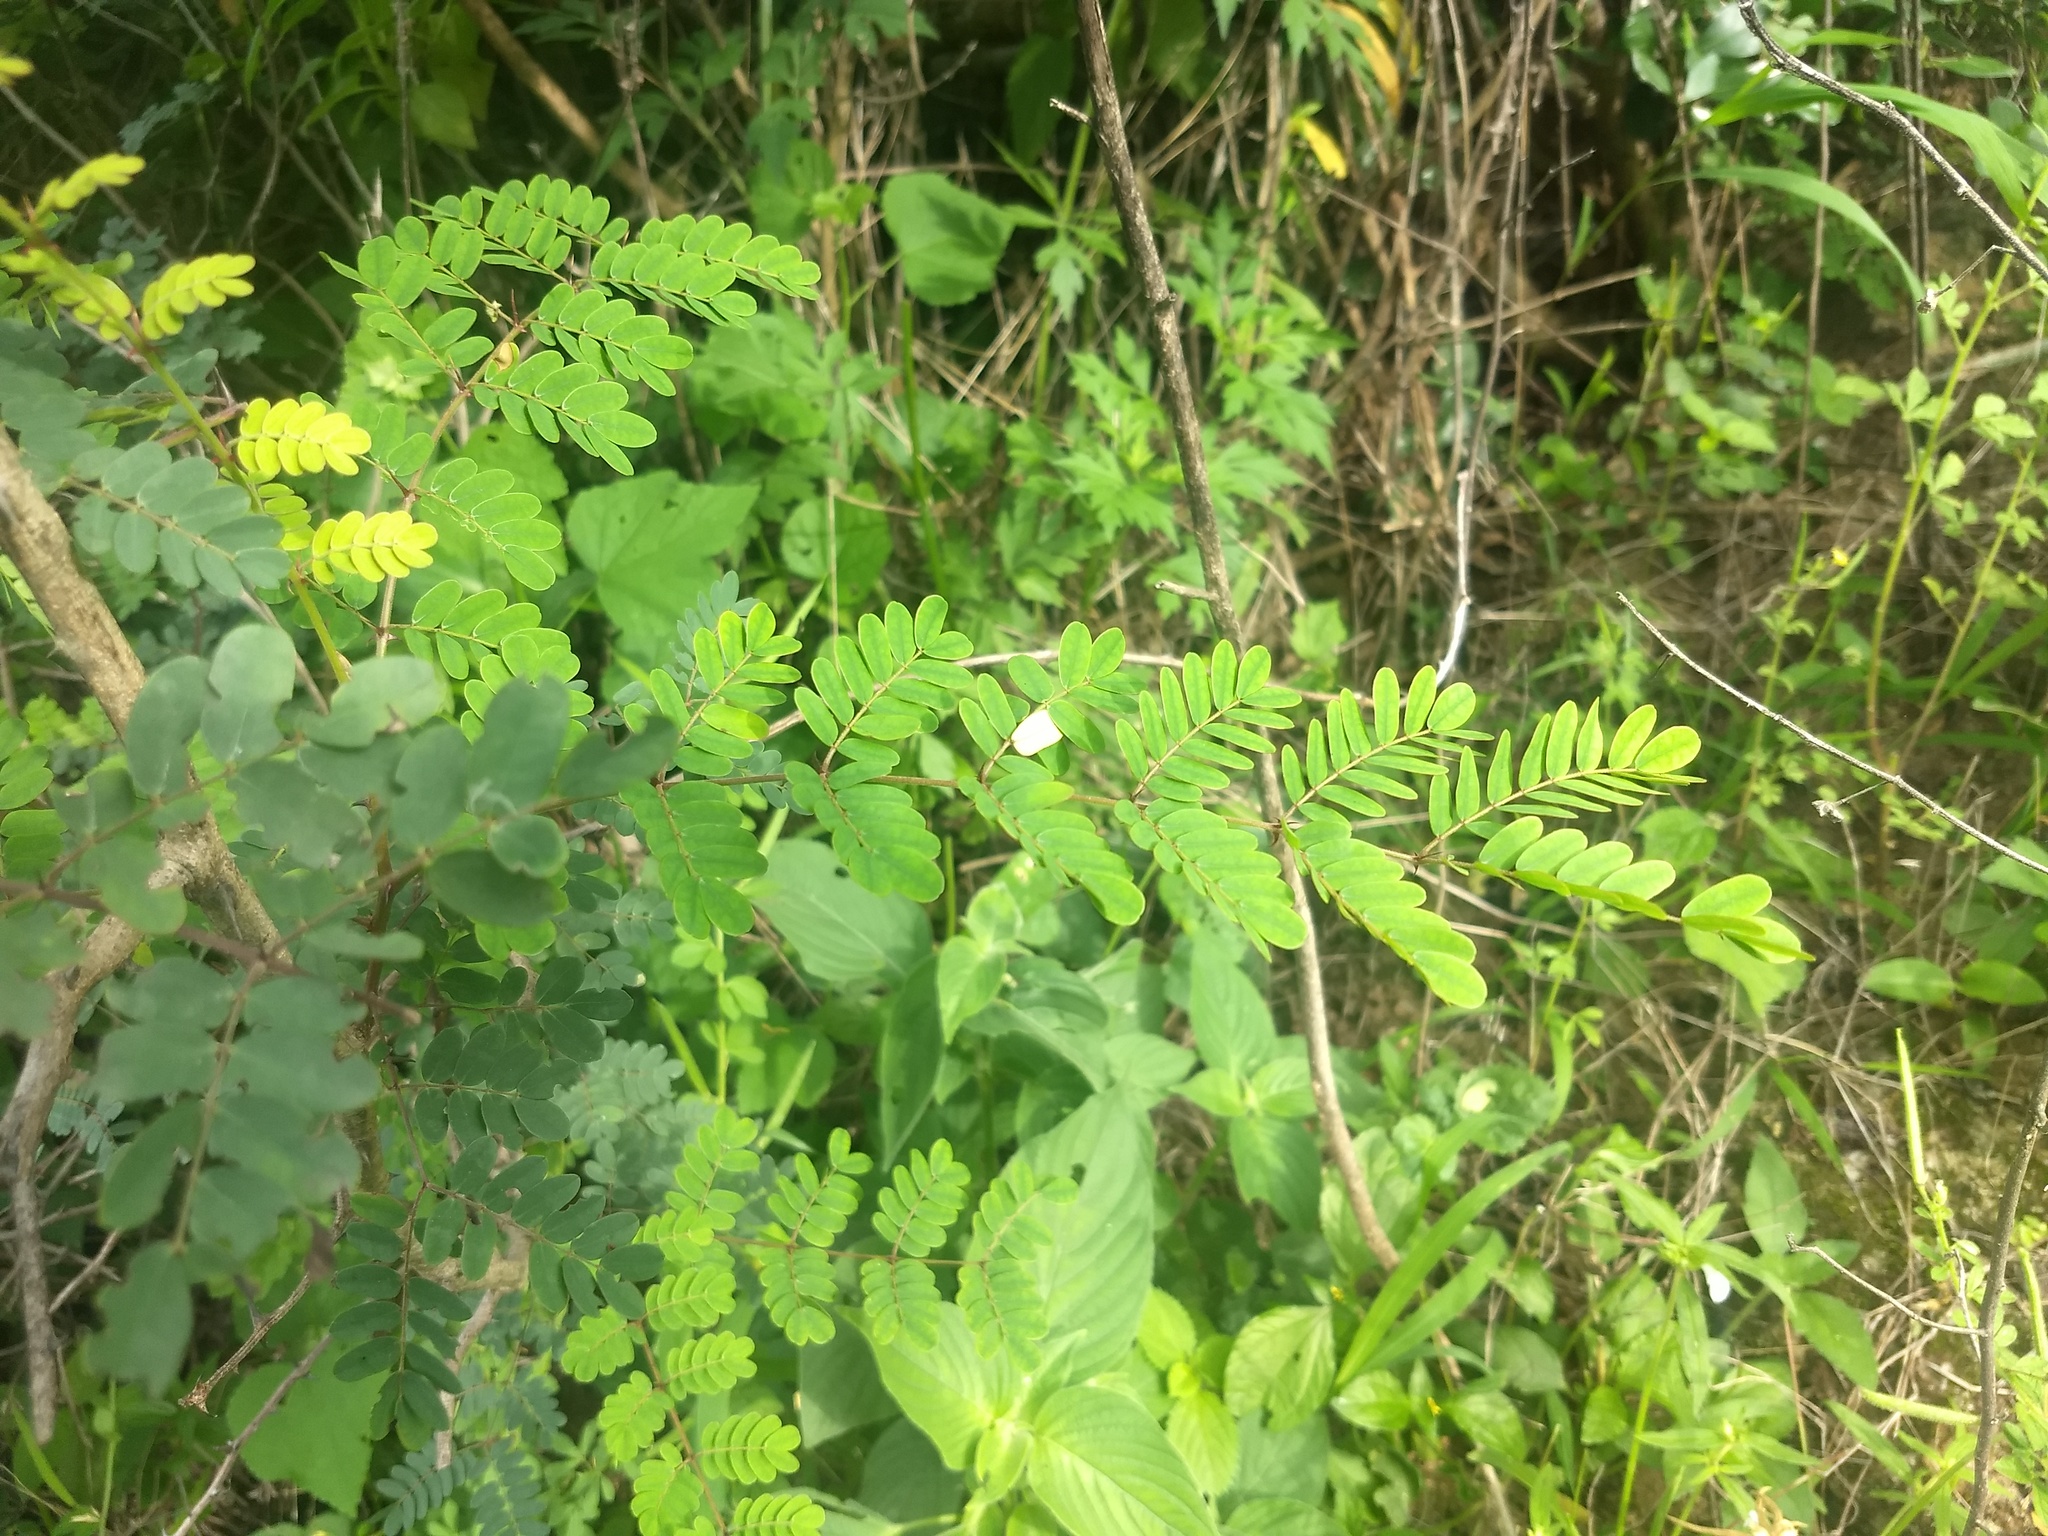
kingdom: Plantae
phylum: Tracheophyta
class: Magnoliopsida
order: Fabales
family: Fabaceae
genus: Pterolobium
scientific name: Pterolobium hexapetalum
